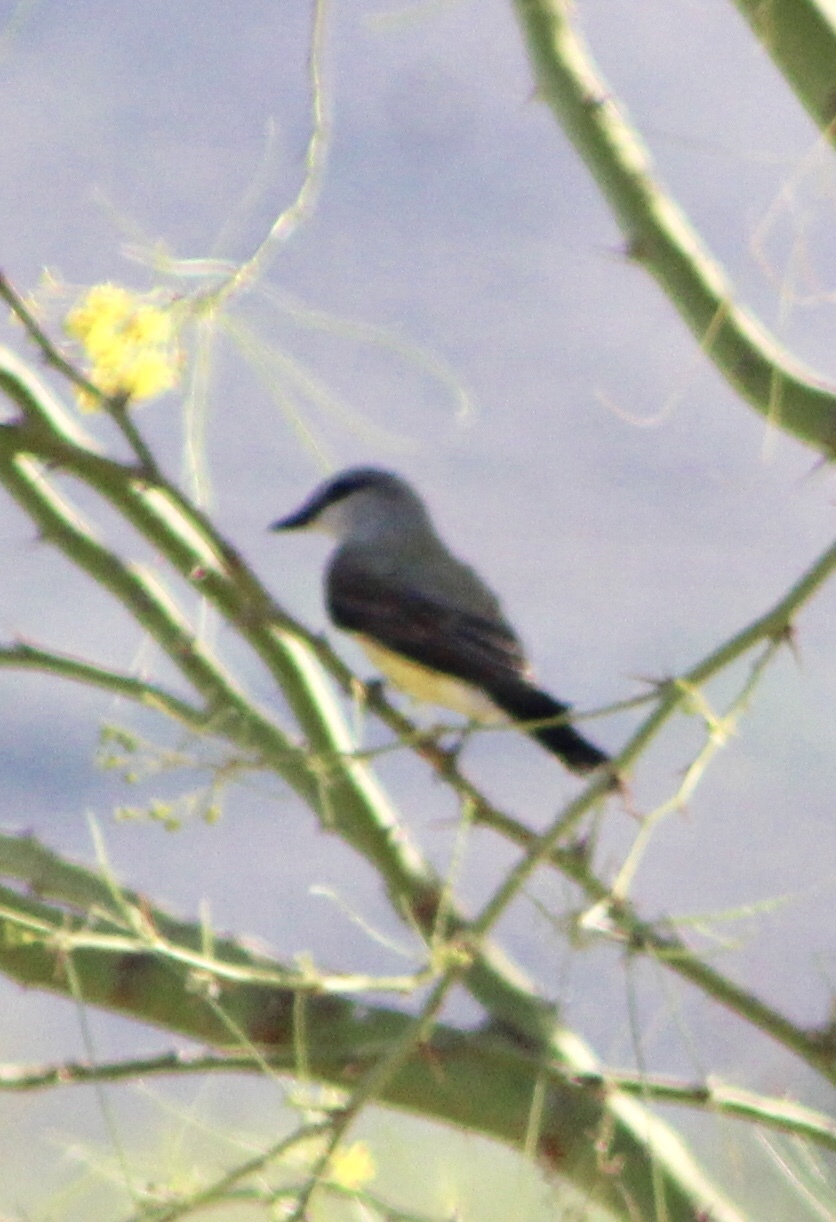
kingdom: Animalia
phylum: Chordata
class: Aves
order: Passeriformes
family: Tyrannidae
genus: Tyrannus
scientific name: Tyrannus verticalis
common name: Western kingbird
